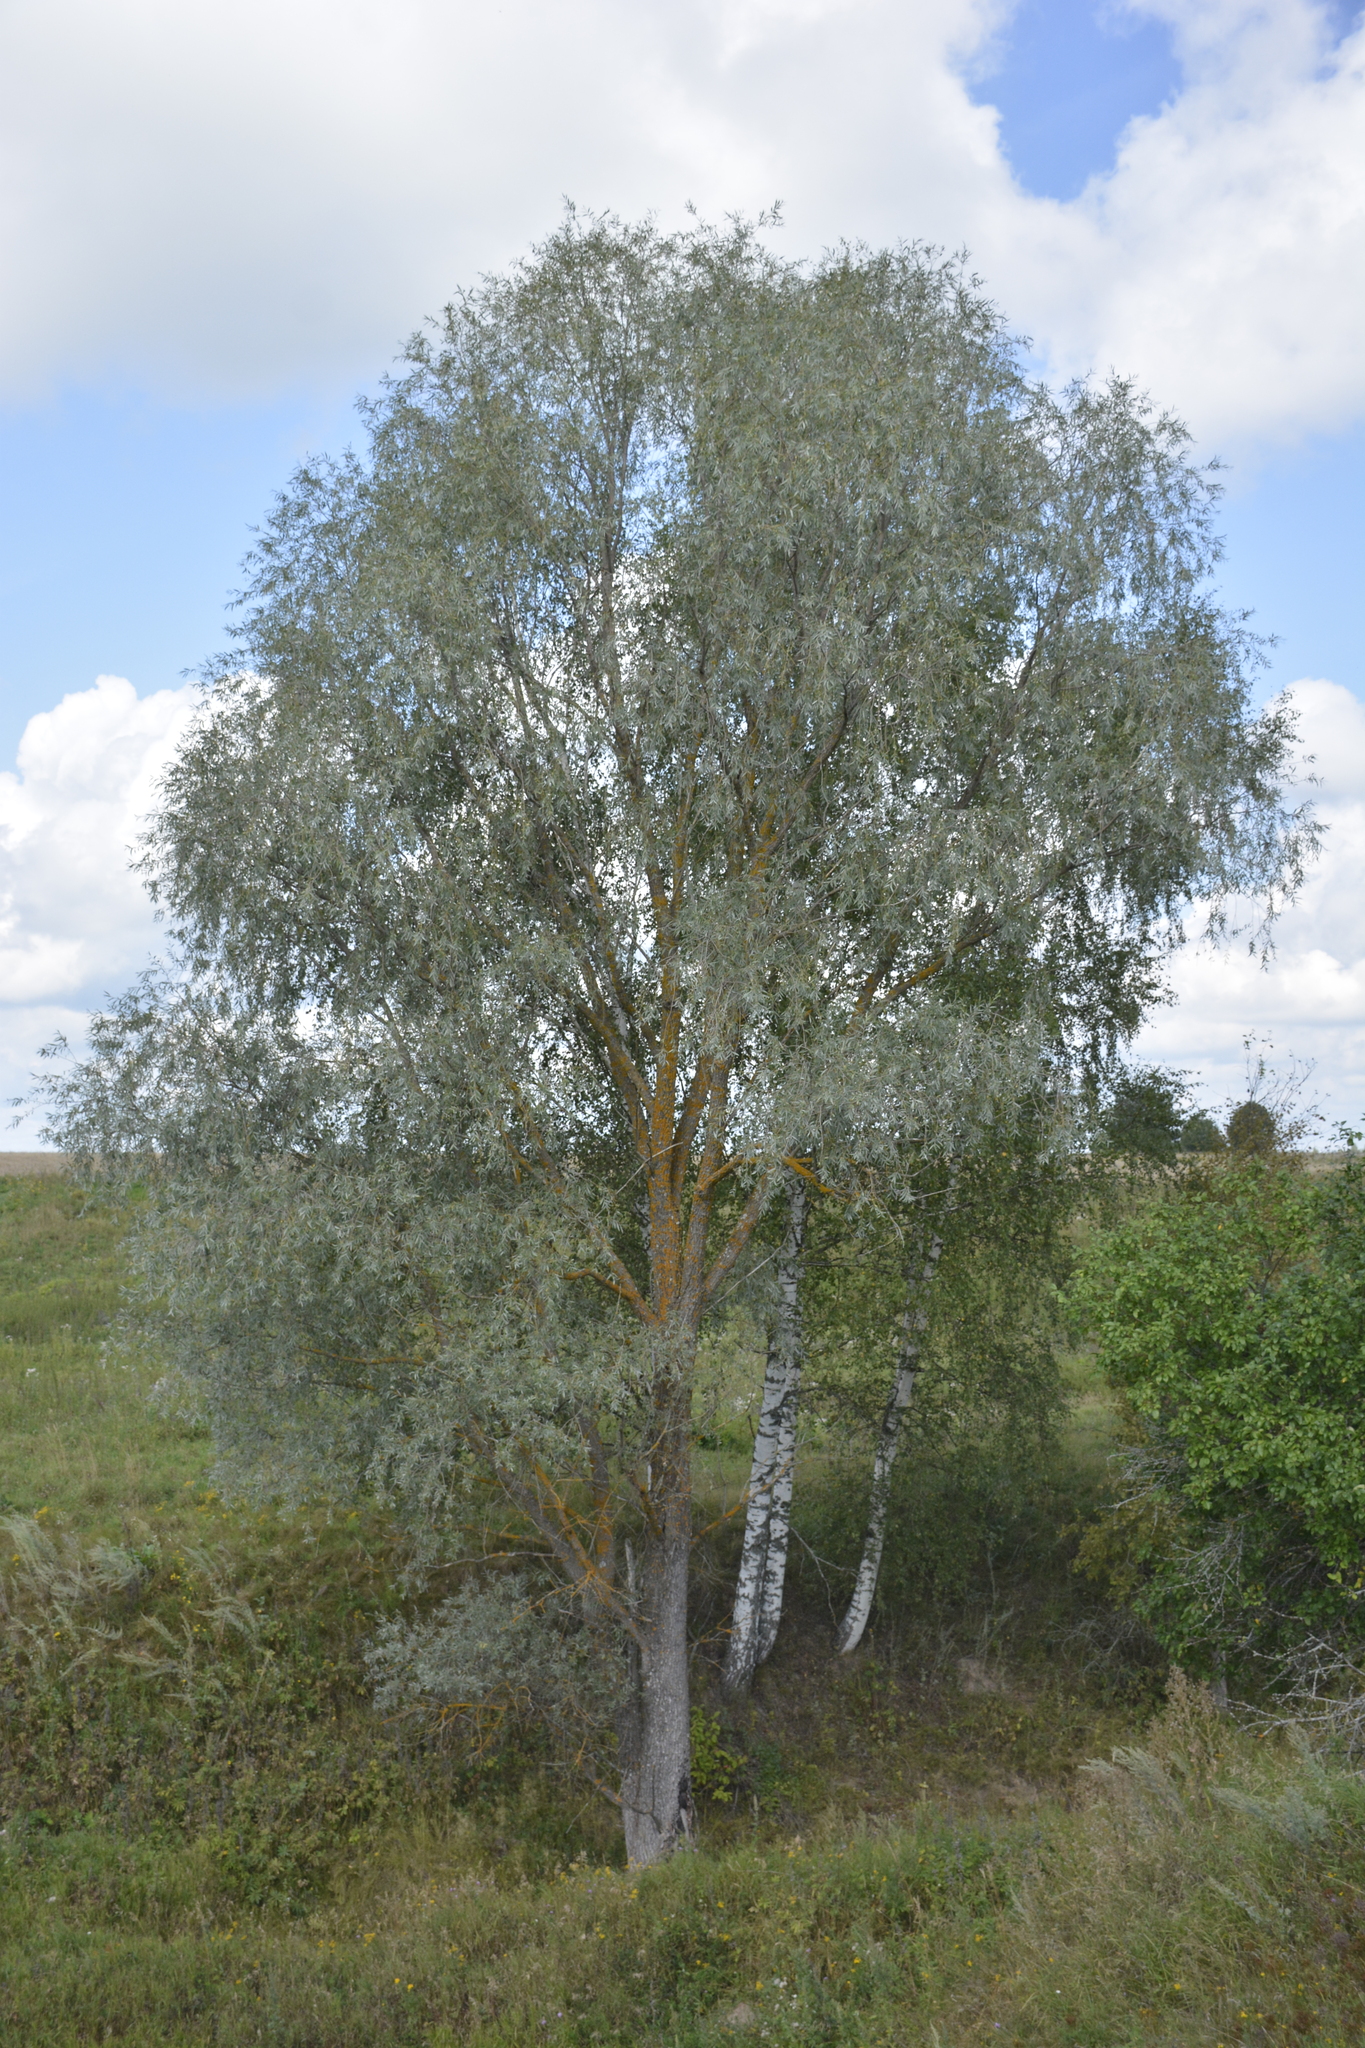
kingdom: Plantae
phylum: Tracheophyta
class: Magnoliopsida
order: Malpighiales
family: Salicaceae
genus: Salix
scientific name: Salix alba
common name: White willow
